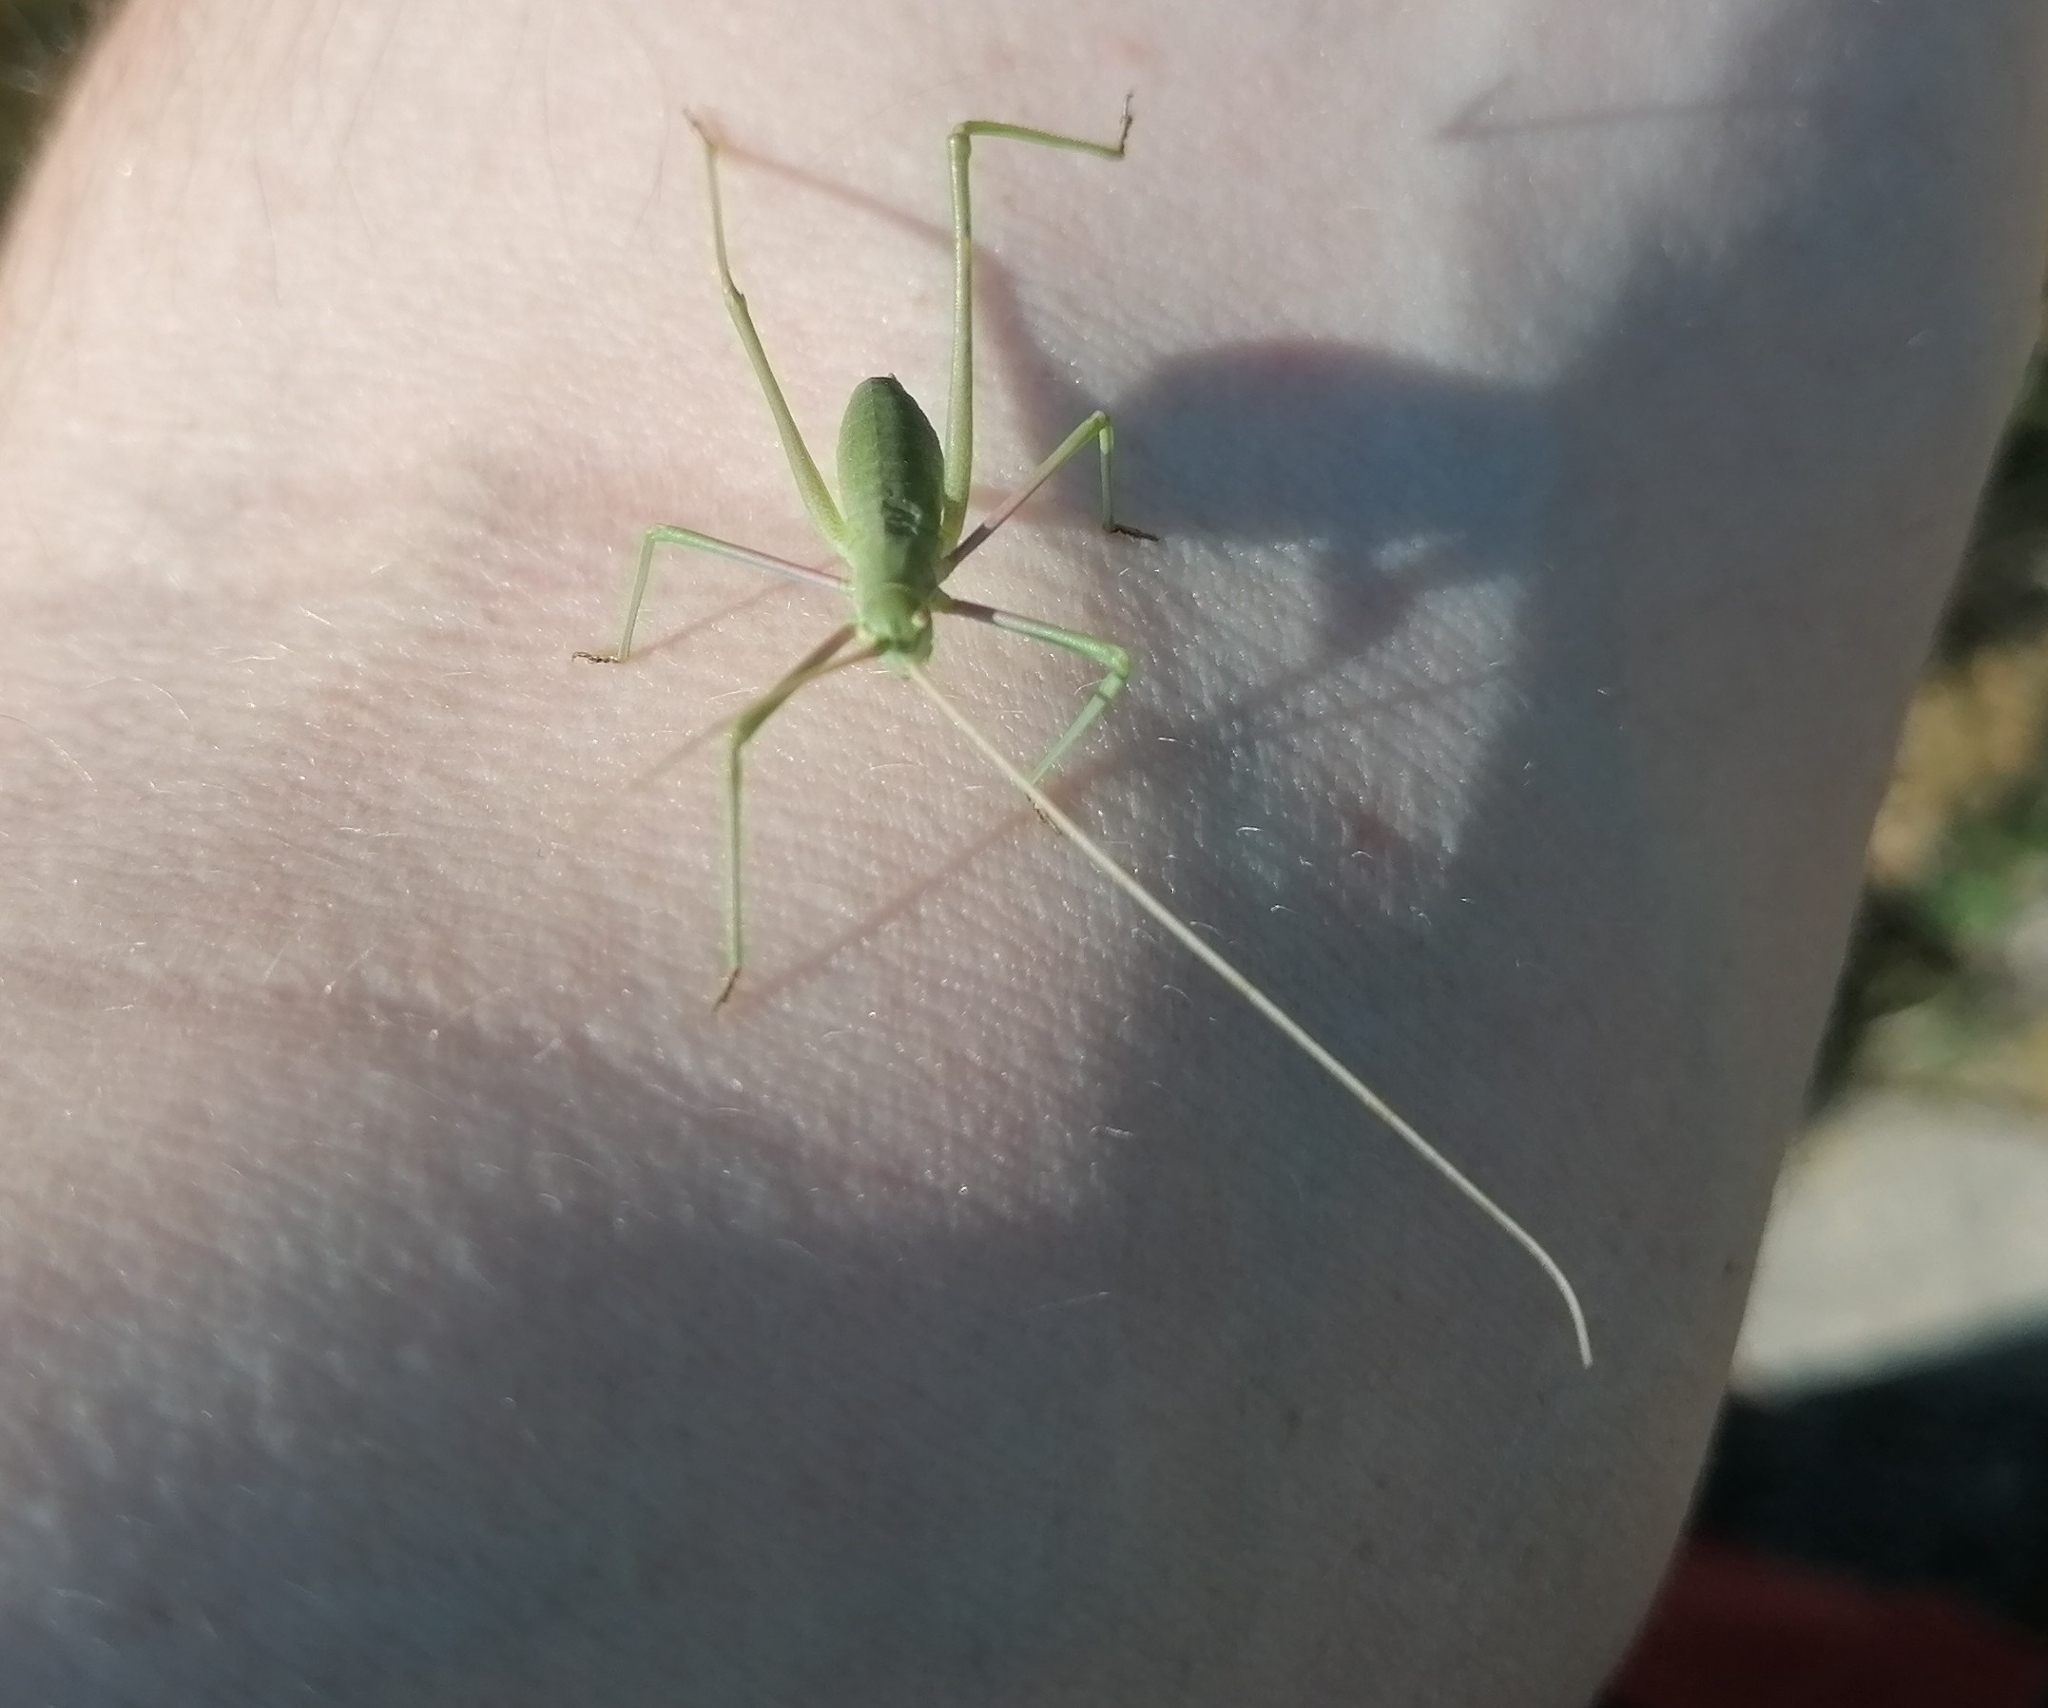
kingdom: Animalia
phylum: Arthropoda
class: Insecta
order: Orthoptera
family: Tettigoniidae
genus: Acrometopa
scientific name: Acrometopa macropoda
